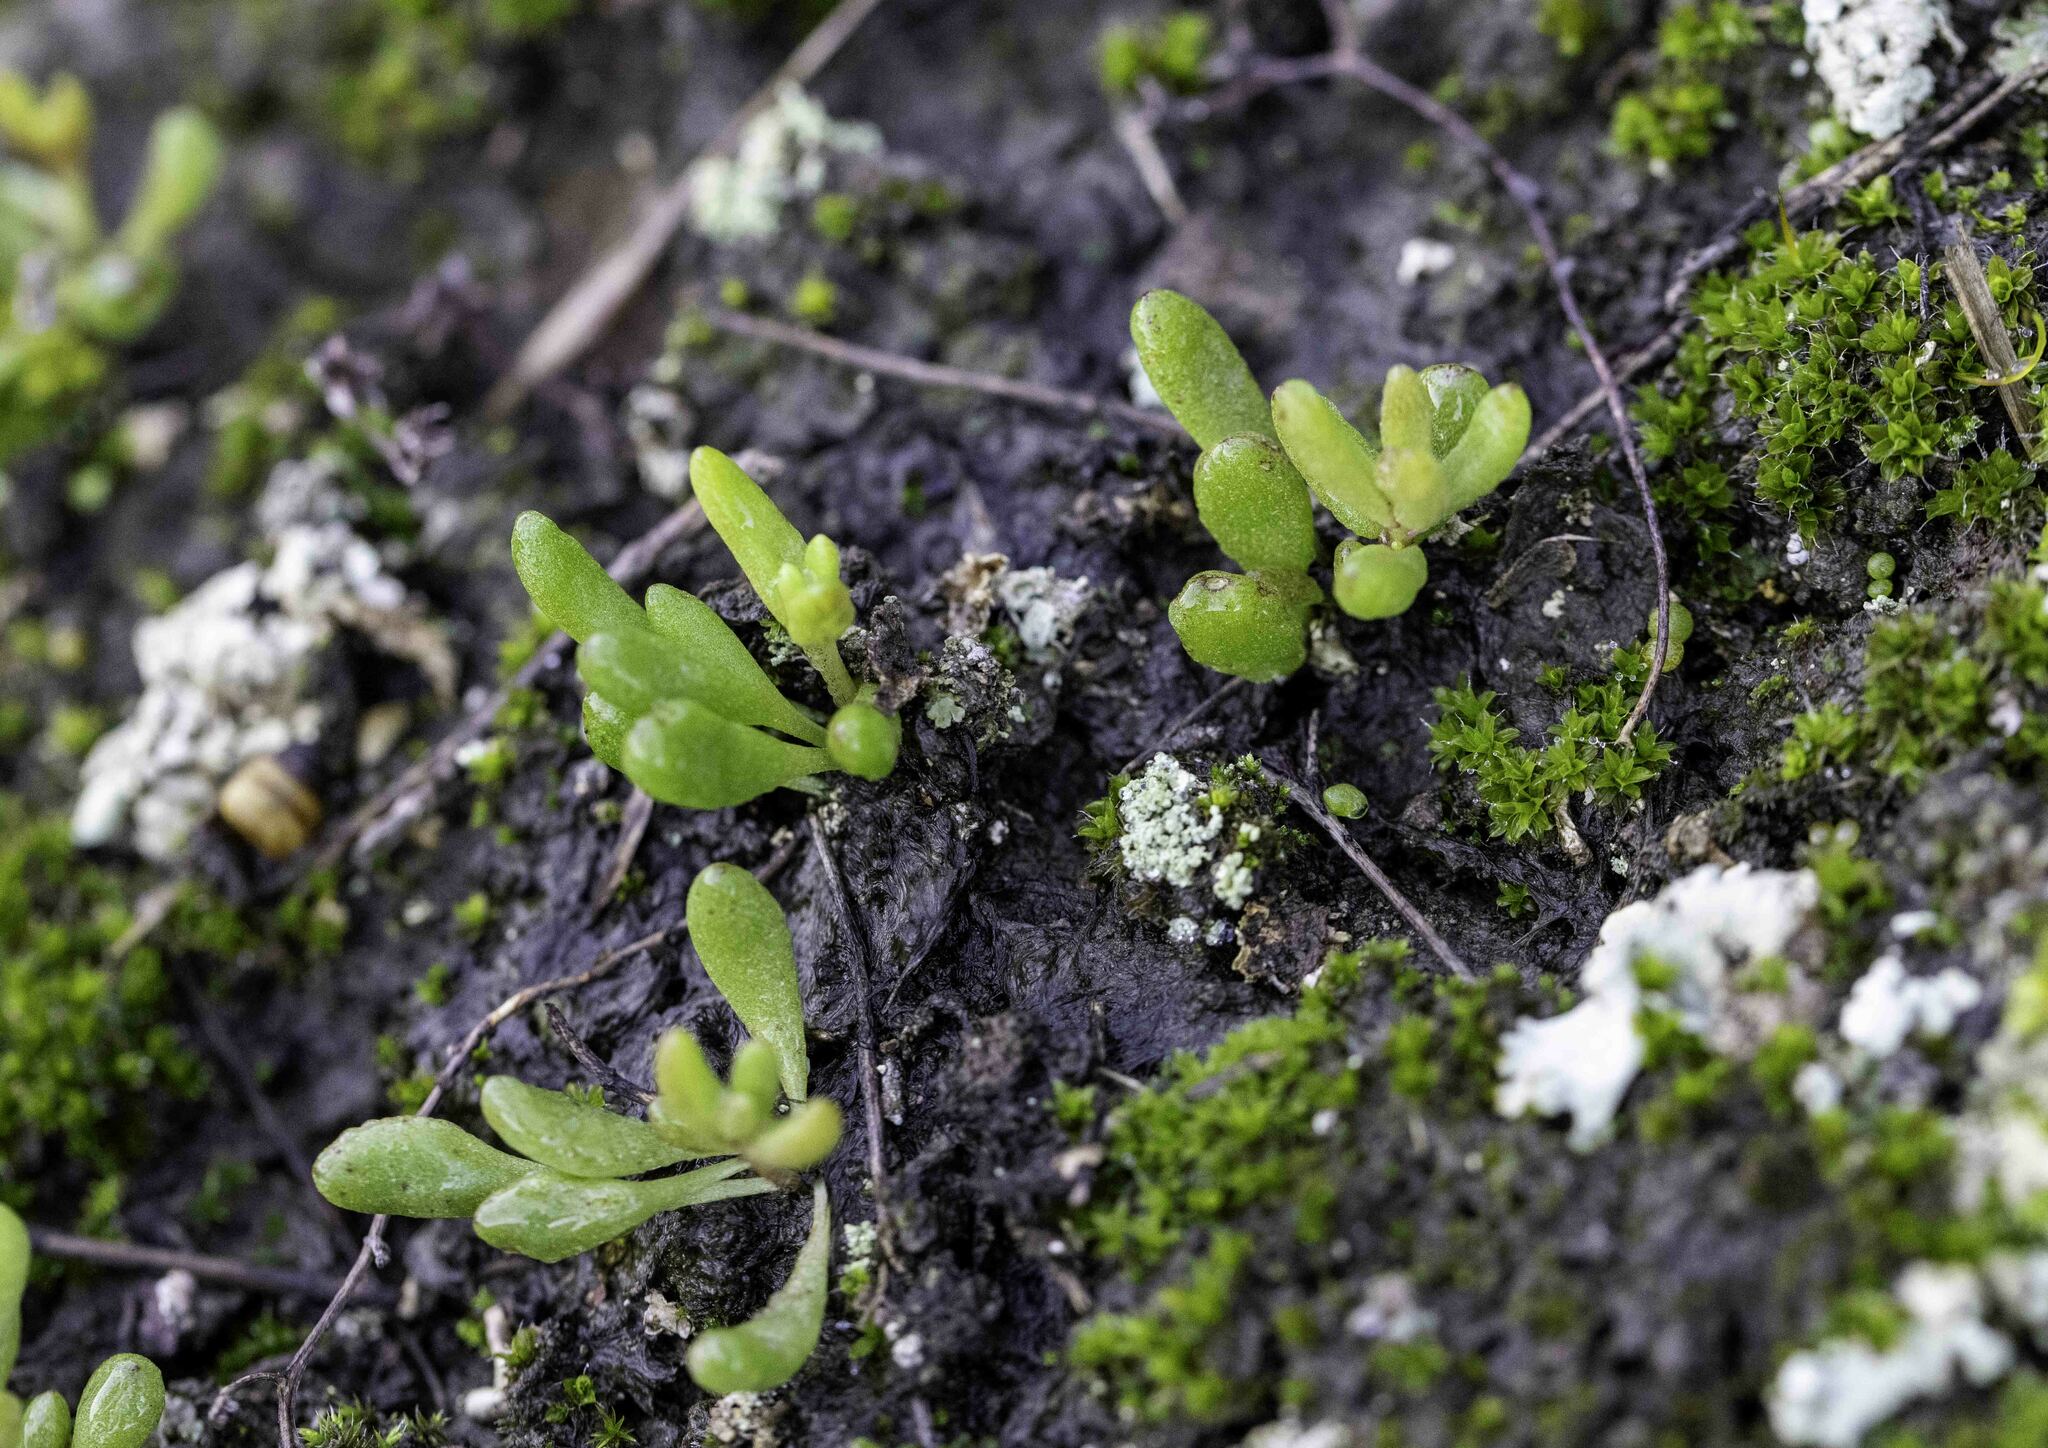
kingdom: Plantae
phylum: Tracheophyta
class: Magnoliopsida
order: Saxifragales
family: Crassulaceae
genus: Dudleya
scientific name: Dudleya blochmaniae
